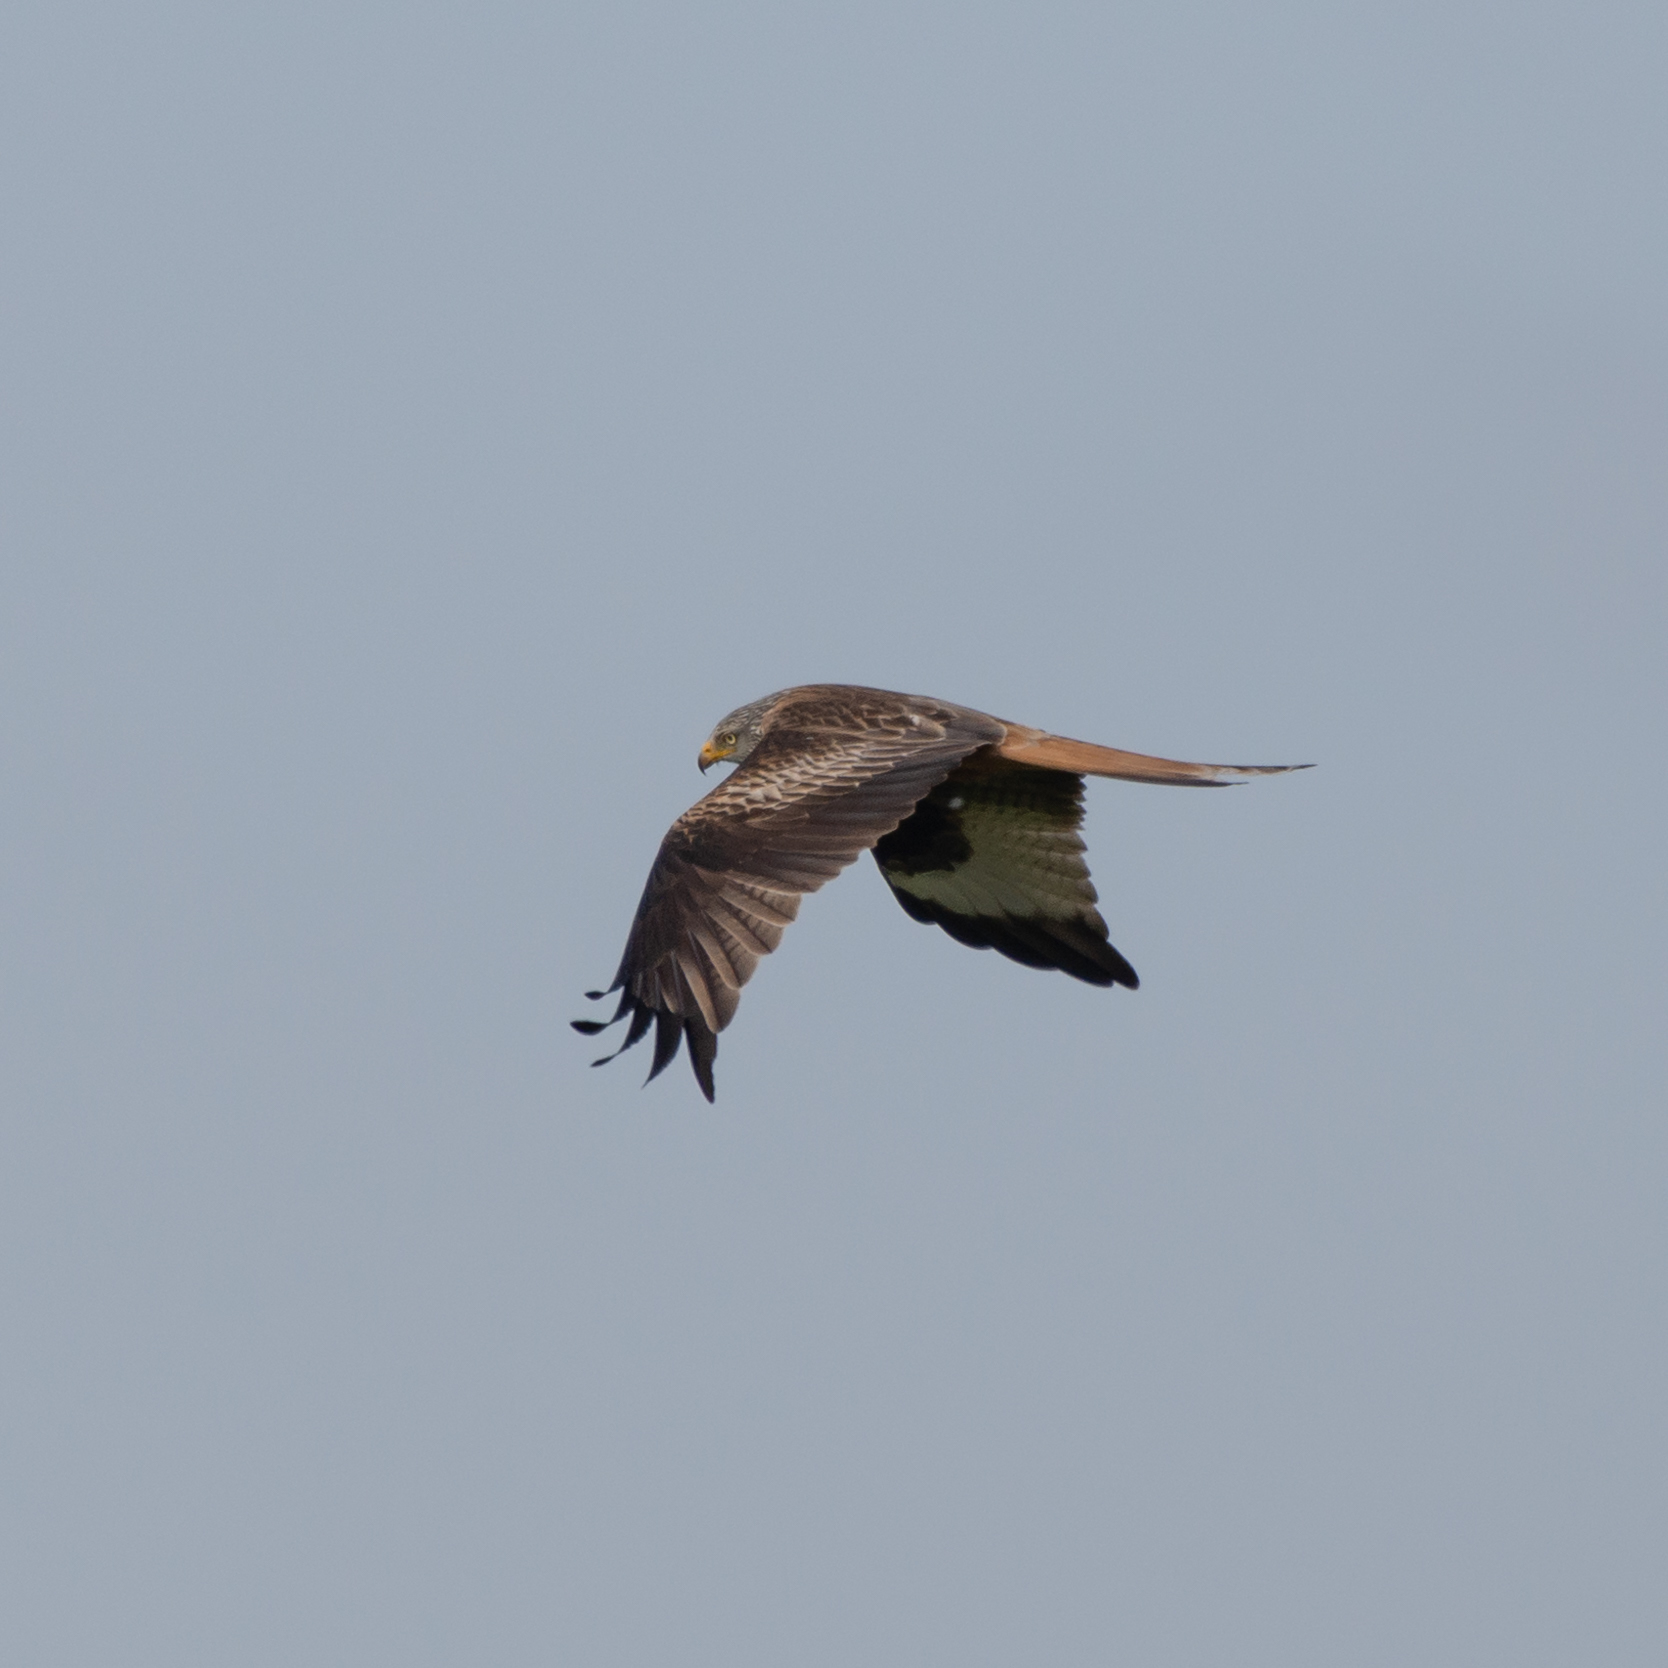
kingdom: Animalia
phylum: Chordata
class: Aves
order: Accipitriformes
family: Accipitridae
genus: Milvus
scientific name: Milvus milvus
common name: Red kite
